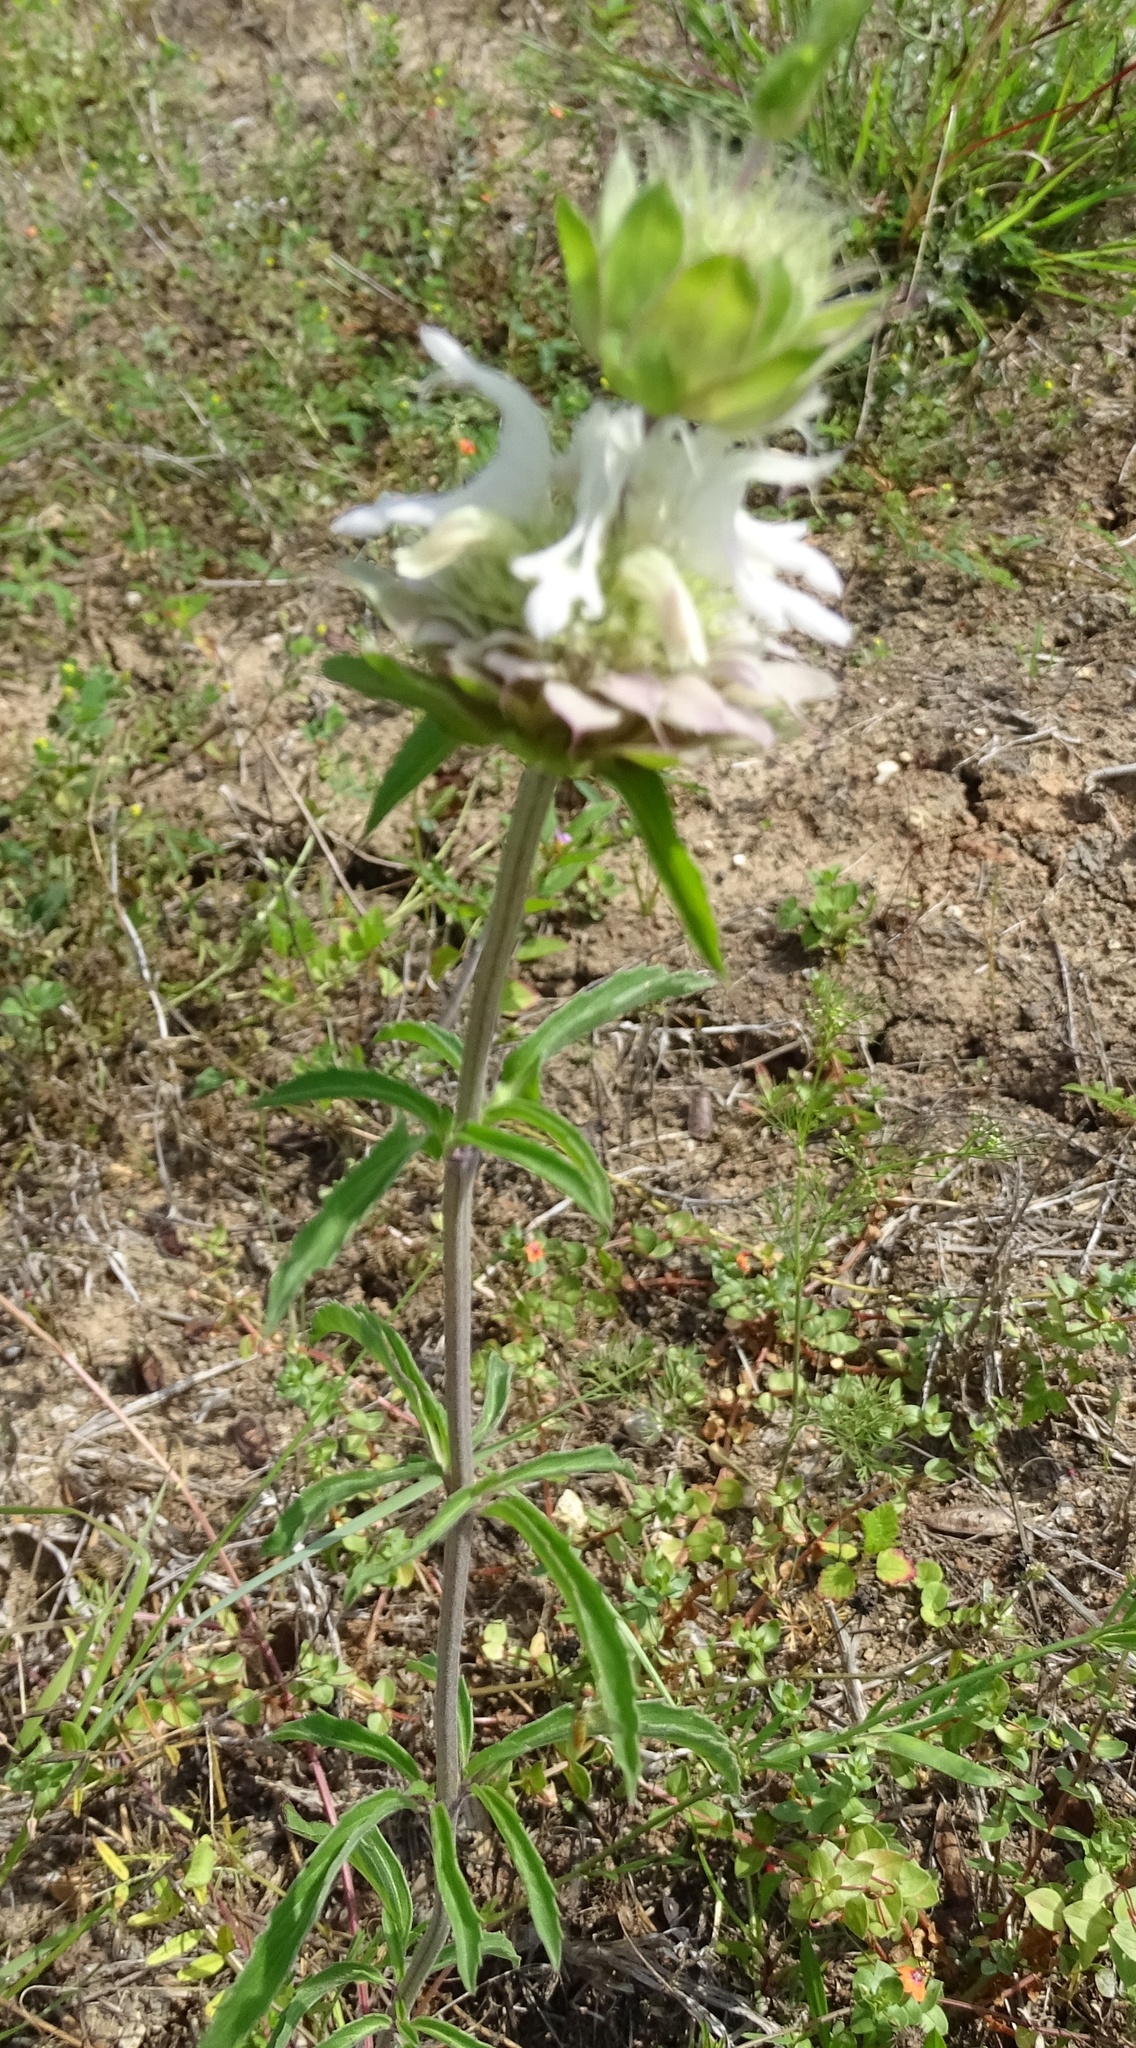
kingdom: Plantae
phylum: Tracheophyta
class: Magnoliopsida
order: Lamiales
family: Lamiaceae
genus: Monarda
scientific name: Monarda citriodora
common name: Lemon beebalm
